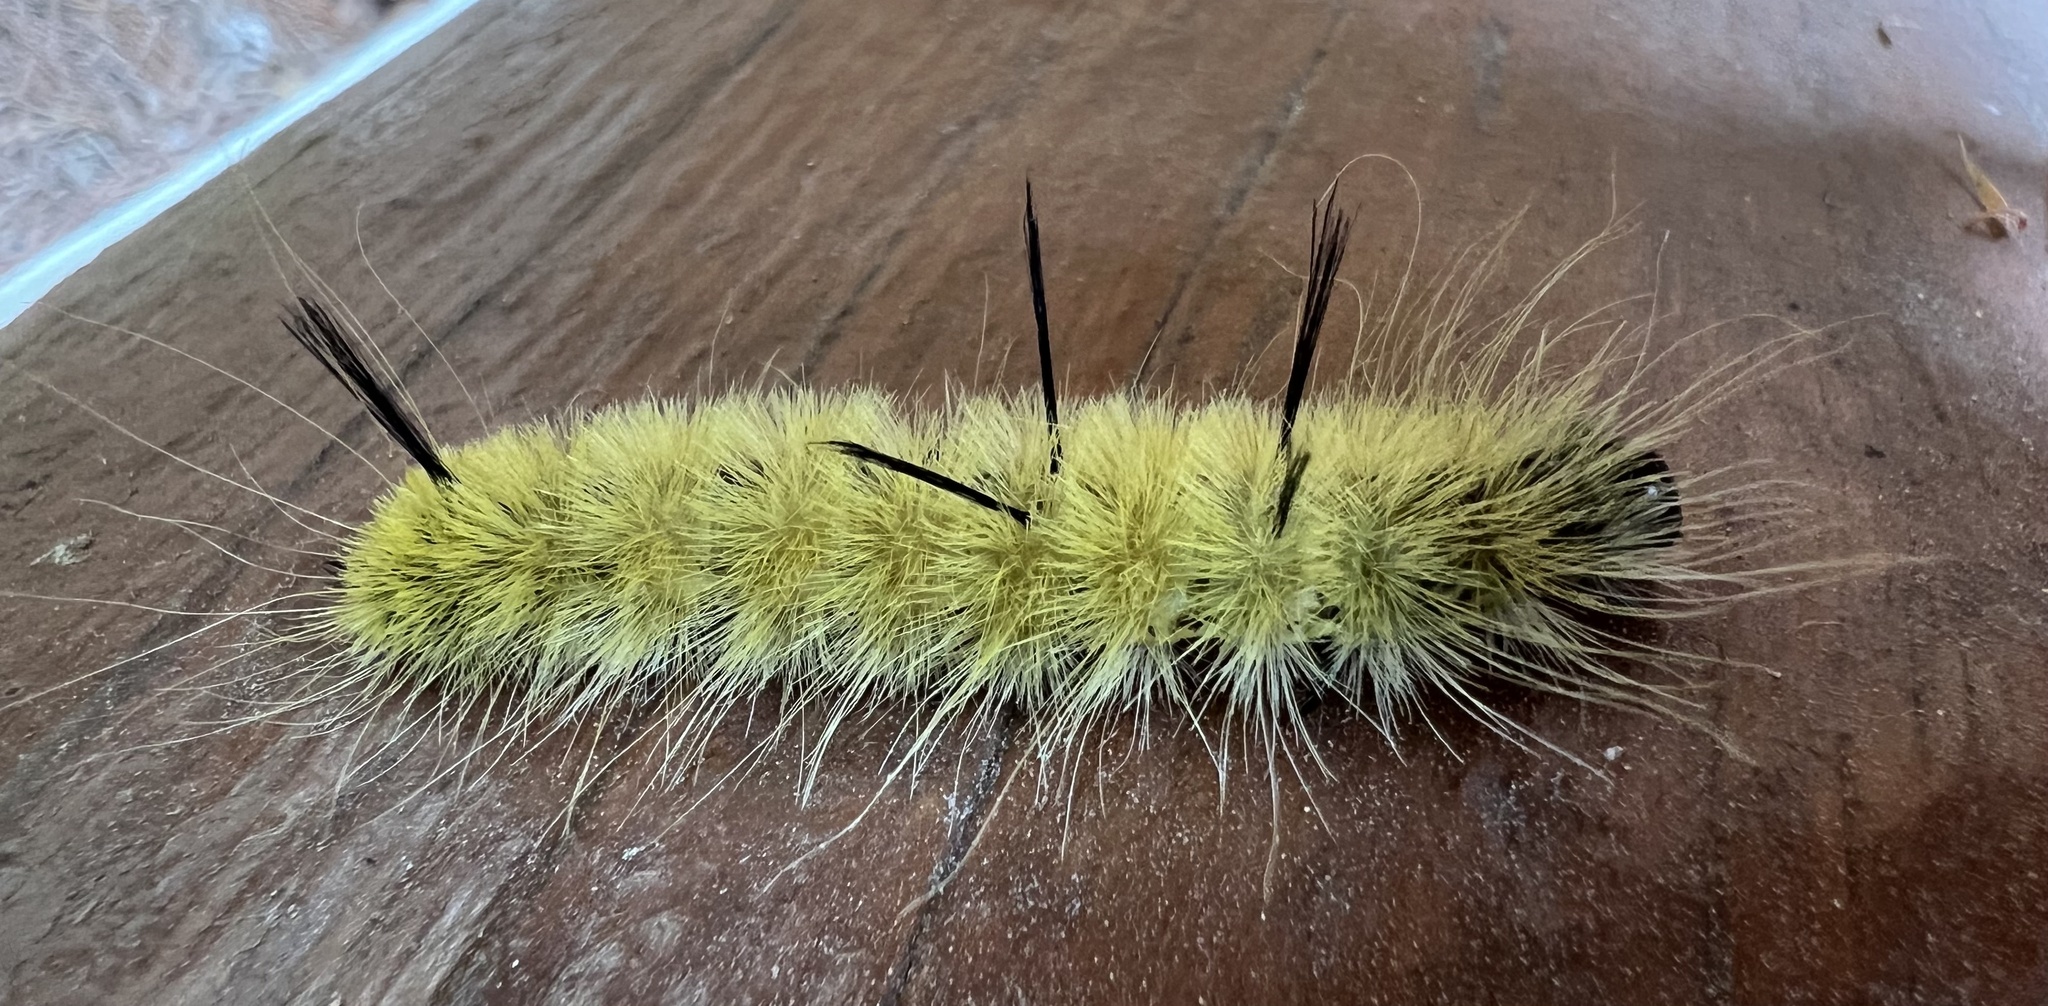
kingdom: Animalia
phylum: Arthropoda
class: Insecta
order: Lepidoptera
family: Noctuidae
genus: Acronicta
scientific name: Acronicta americana
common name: American dagger
